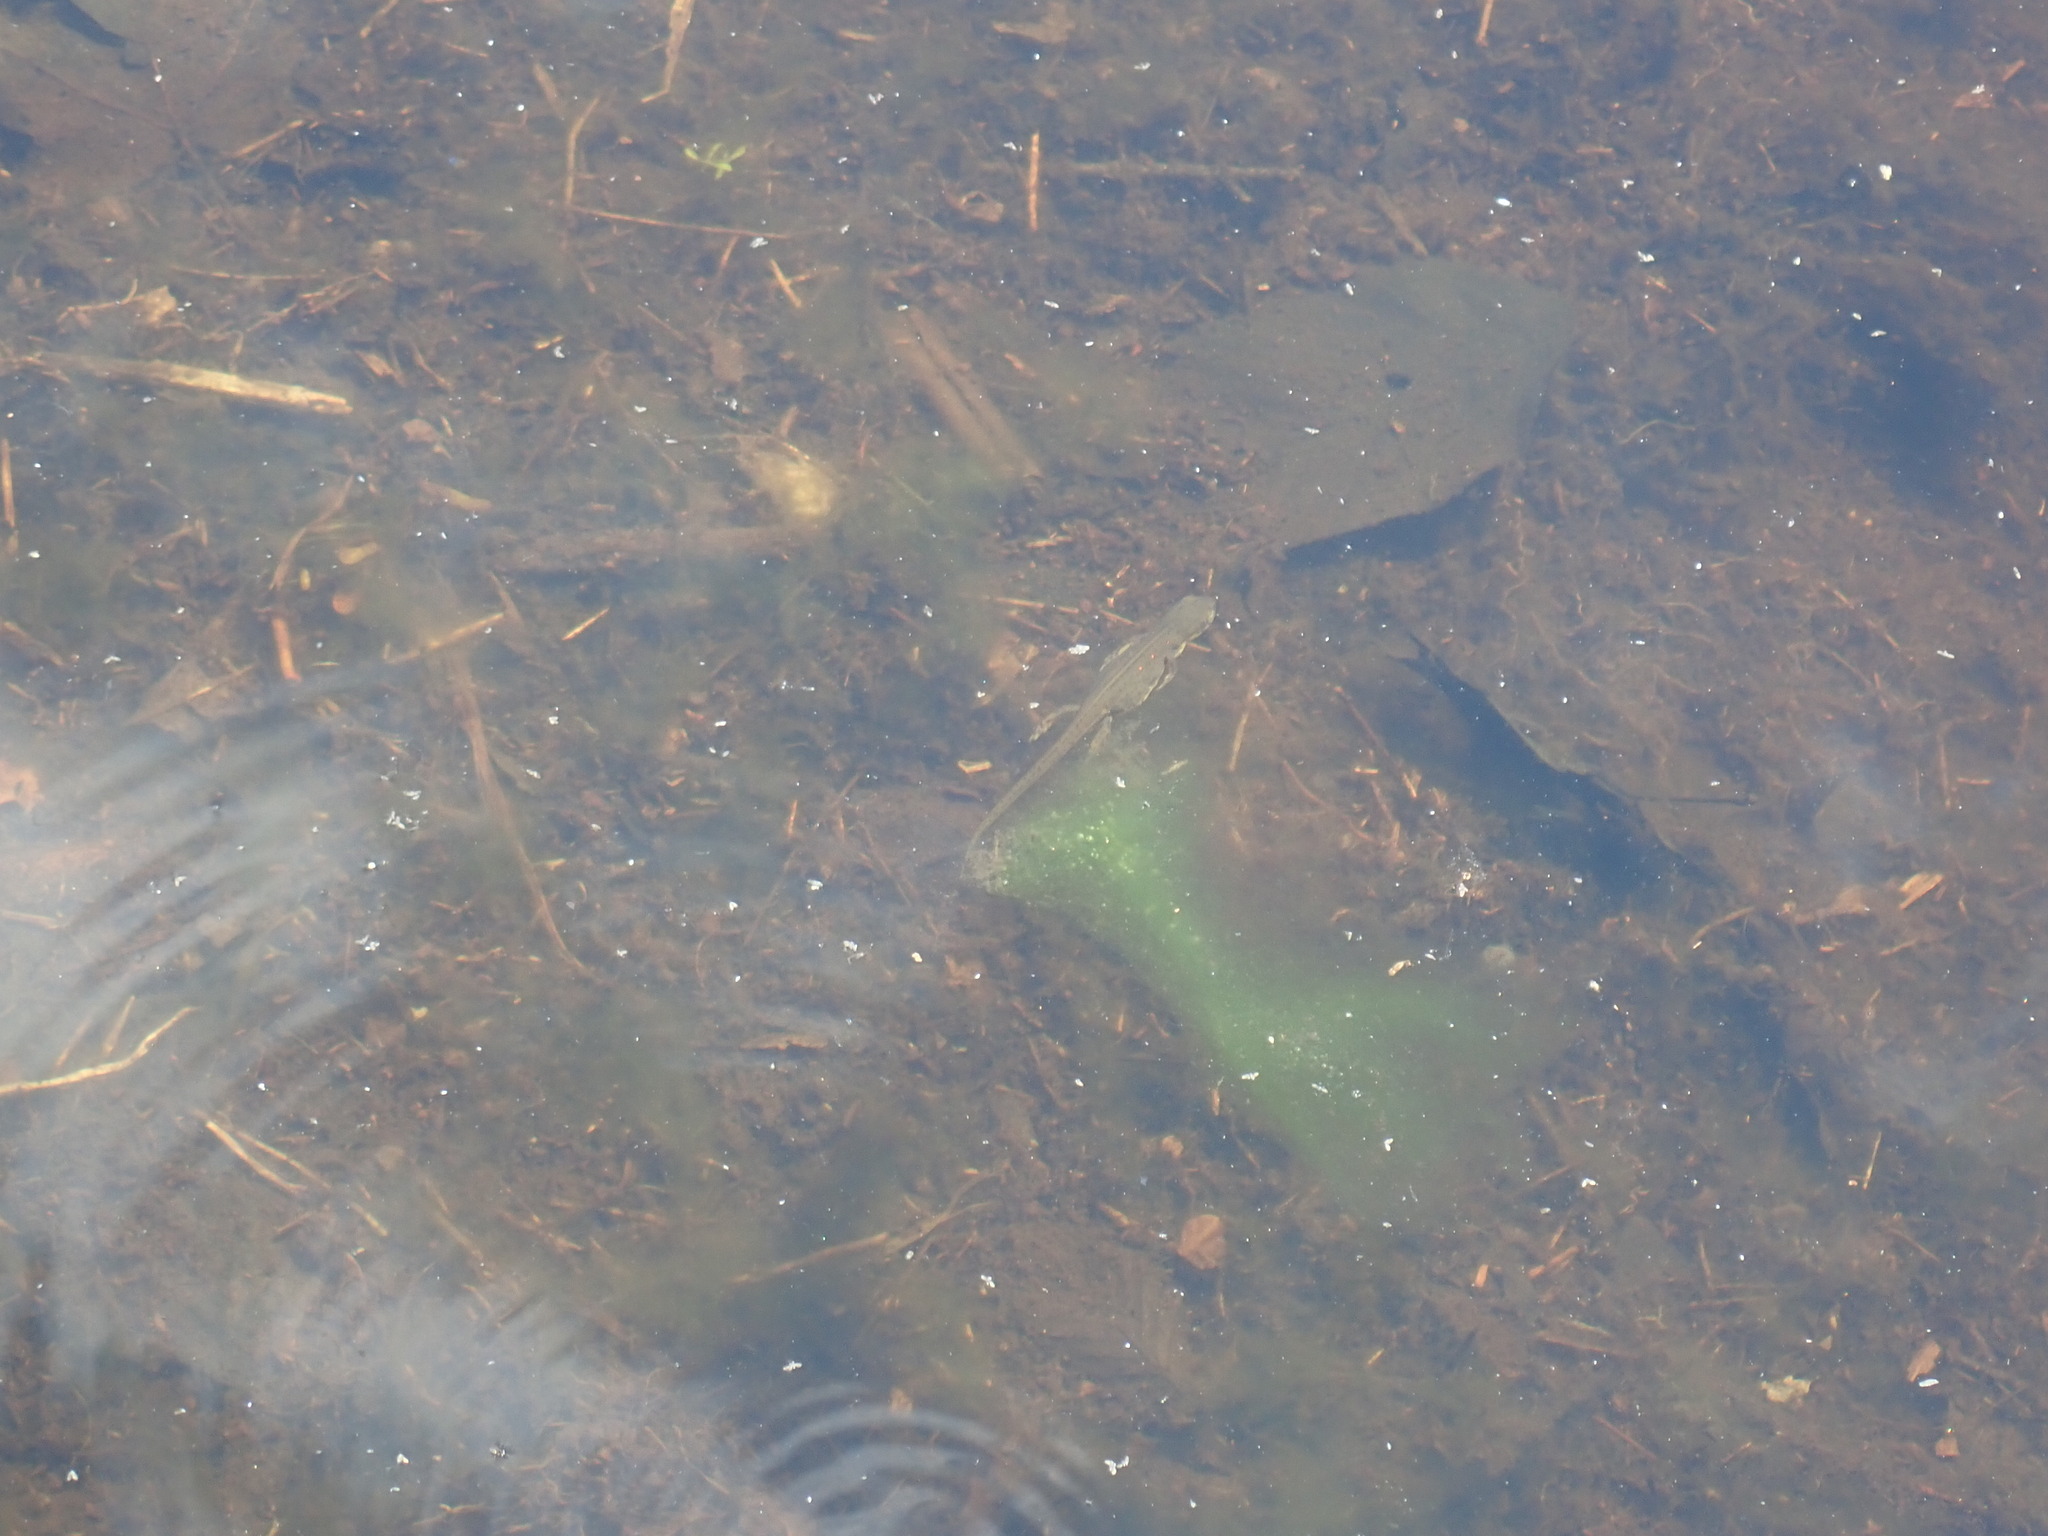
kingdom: Animalia
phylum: Chordata
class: Amphibia
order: Caudata
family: Salamandridae
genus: Notophthalmus
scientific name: Notophthalmus viridescens
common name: Eastern newt
